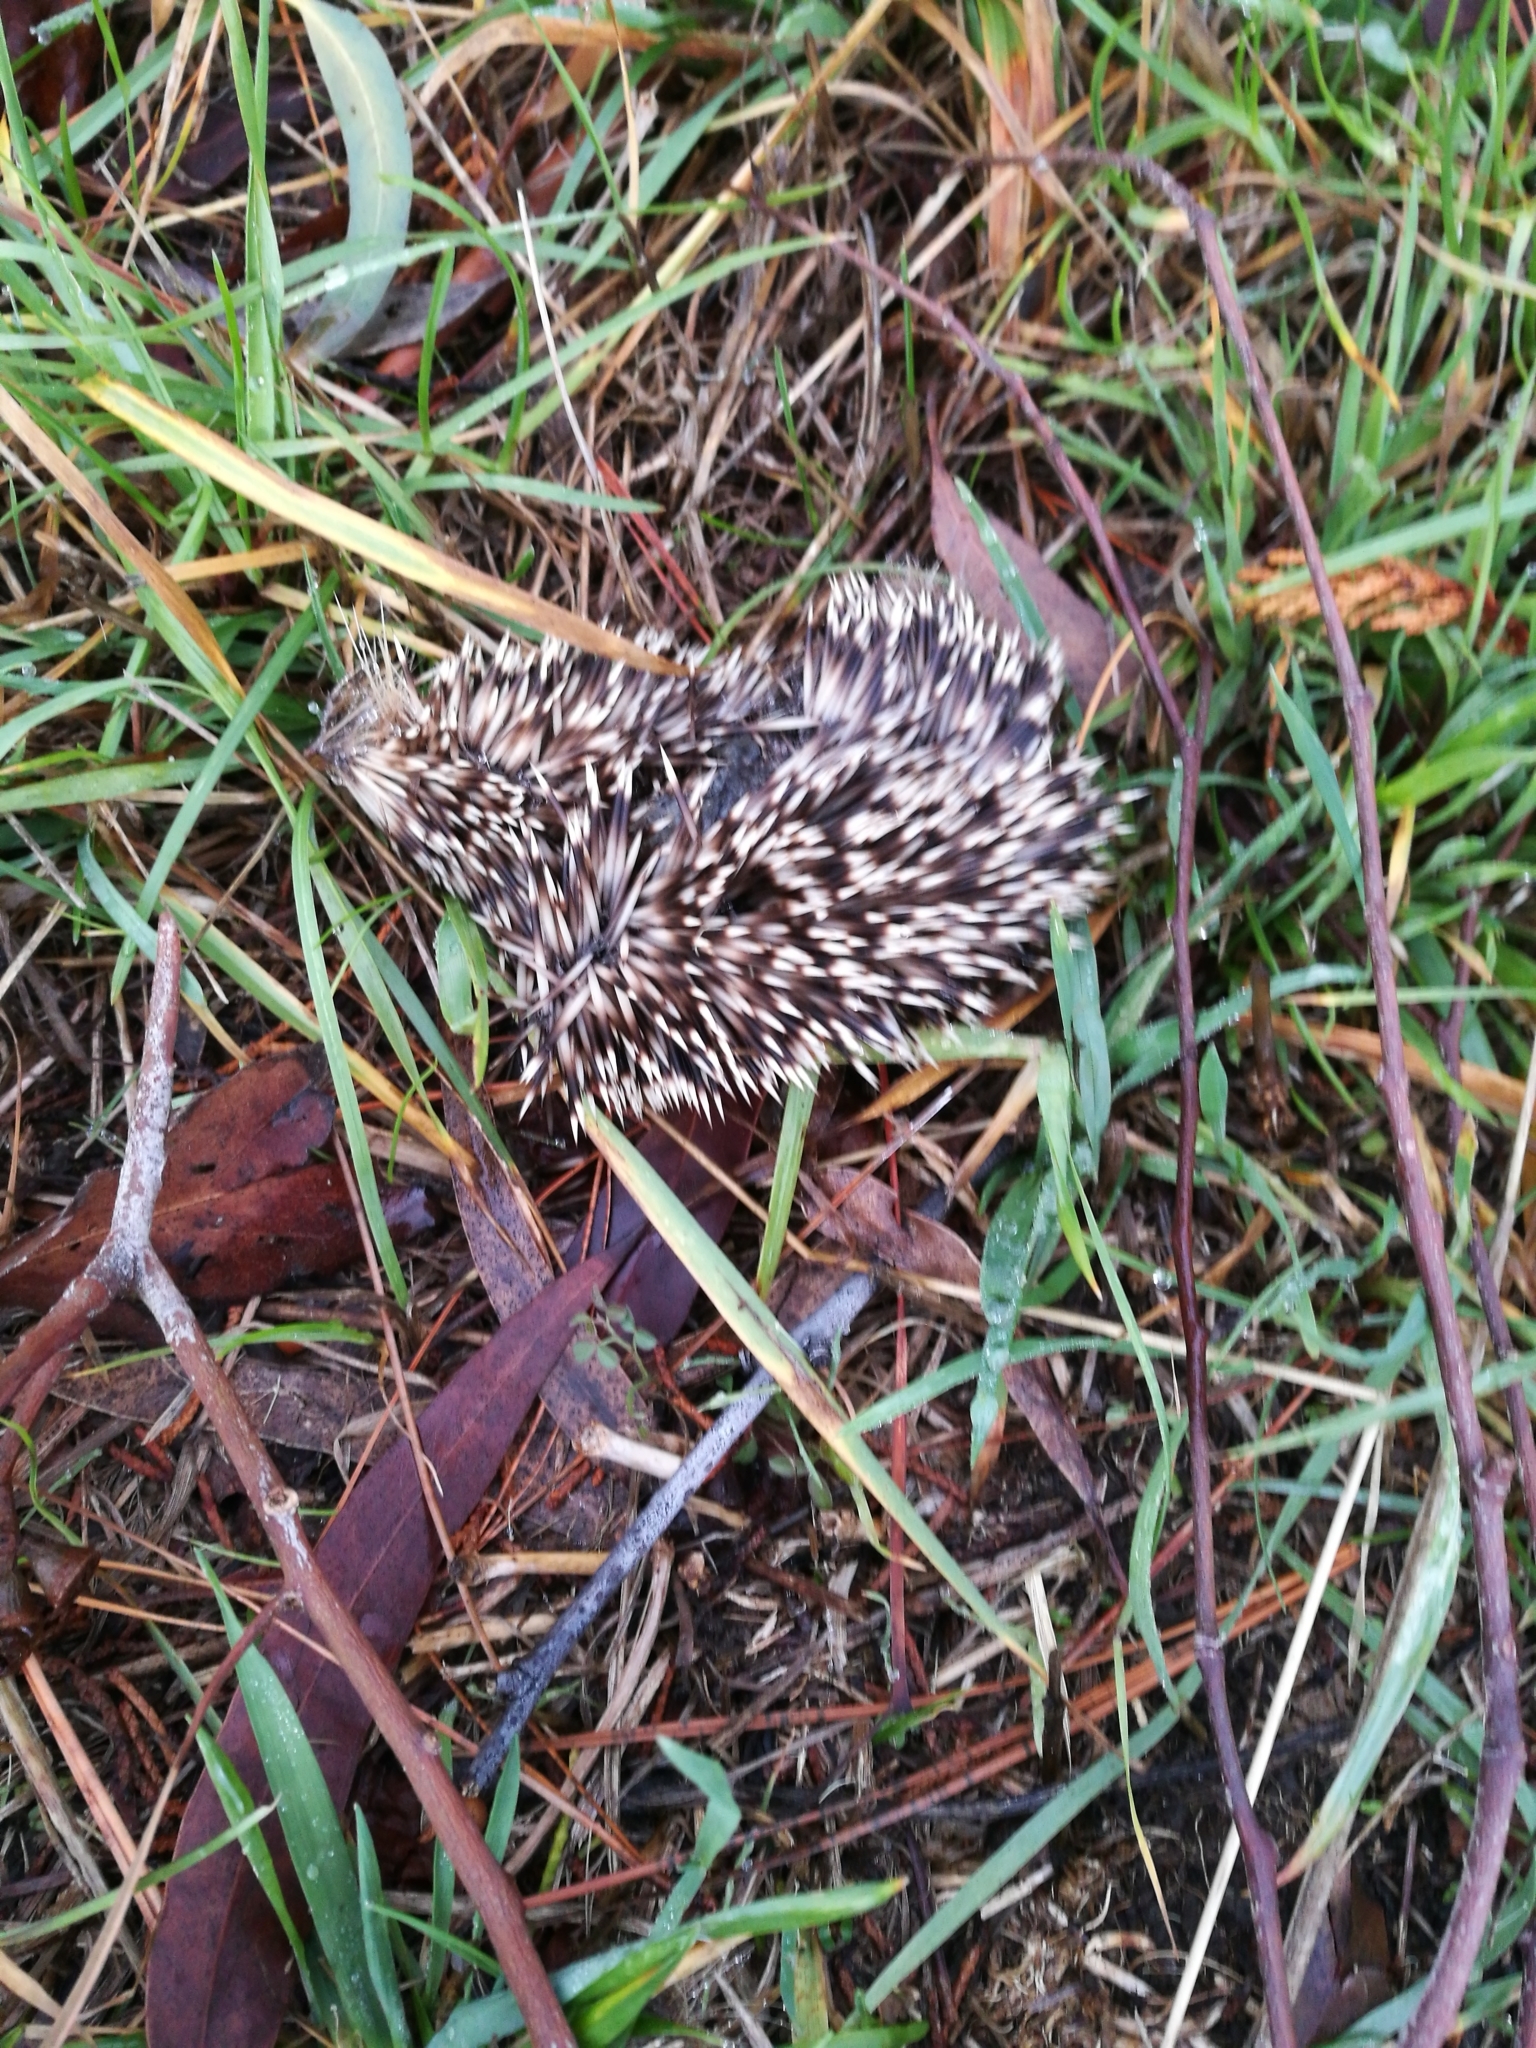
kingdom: Animalia
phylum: Chordata
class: Mammalia
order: Erinaceomorpha
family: Erinaceidae
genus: Erinaceus
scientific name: Erinaceus europaeus
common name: West european hedgehog
